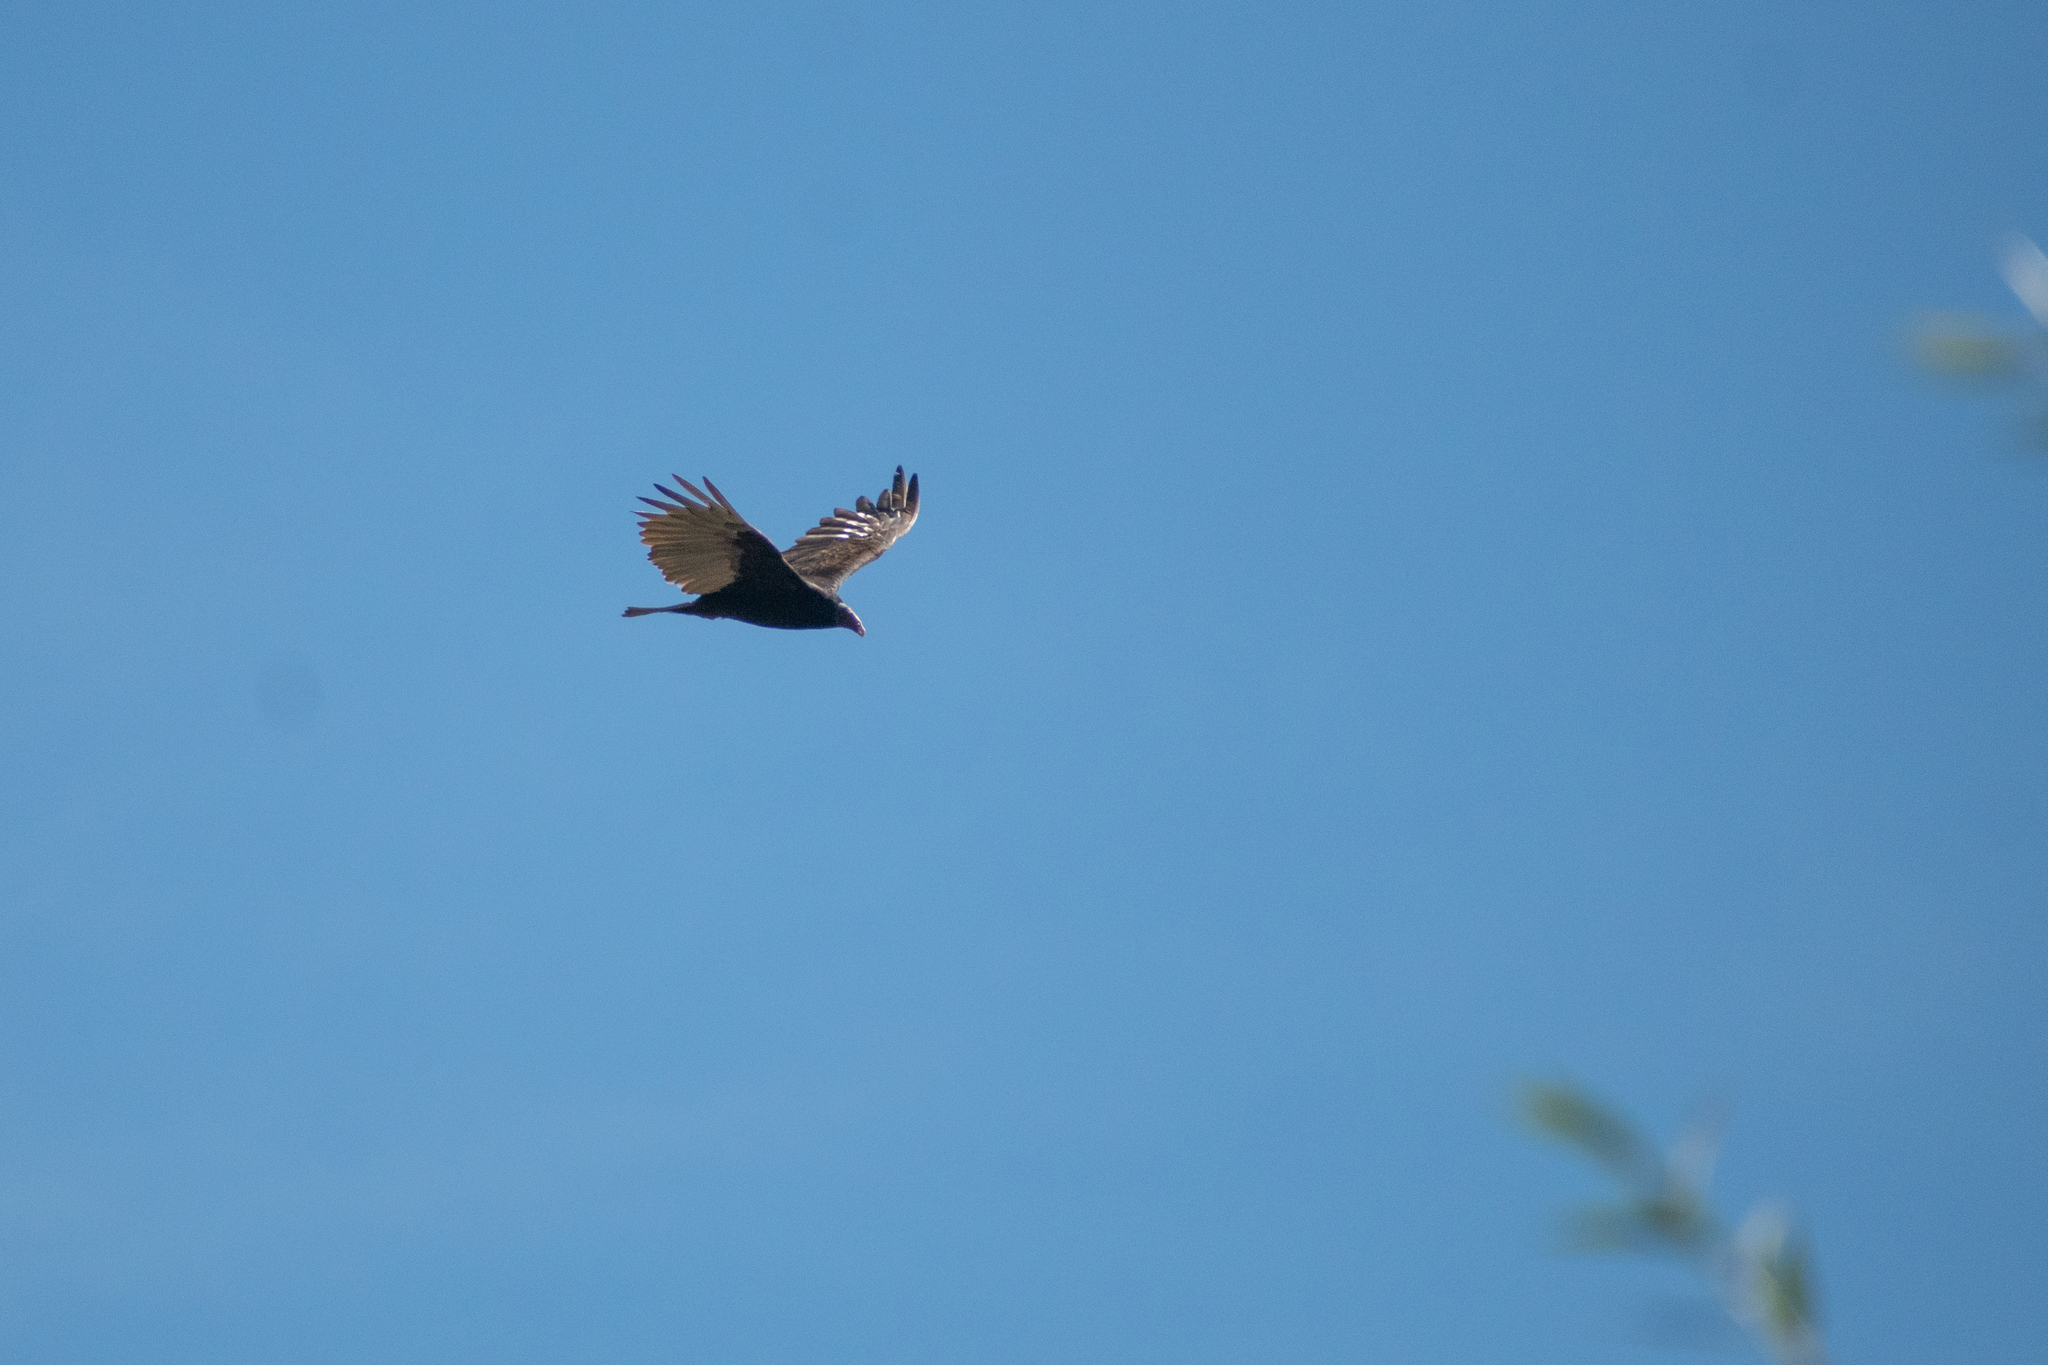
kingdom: Animalia
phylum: Chordata
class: Aves
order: Accipitriformes
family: Cathartidae
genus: Cathartes
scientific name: Cathartes aura
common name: Turkey vulture
